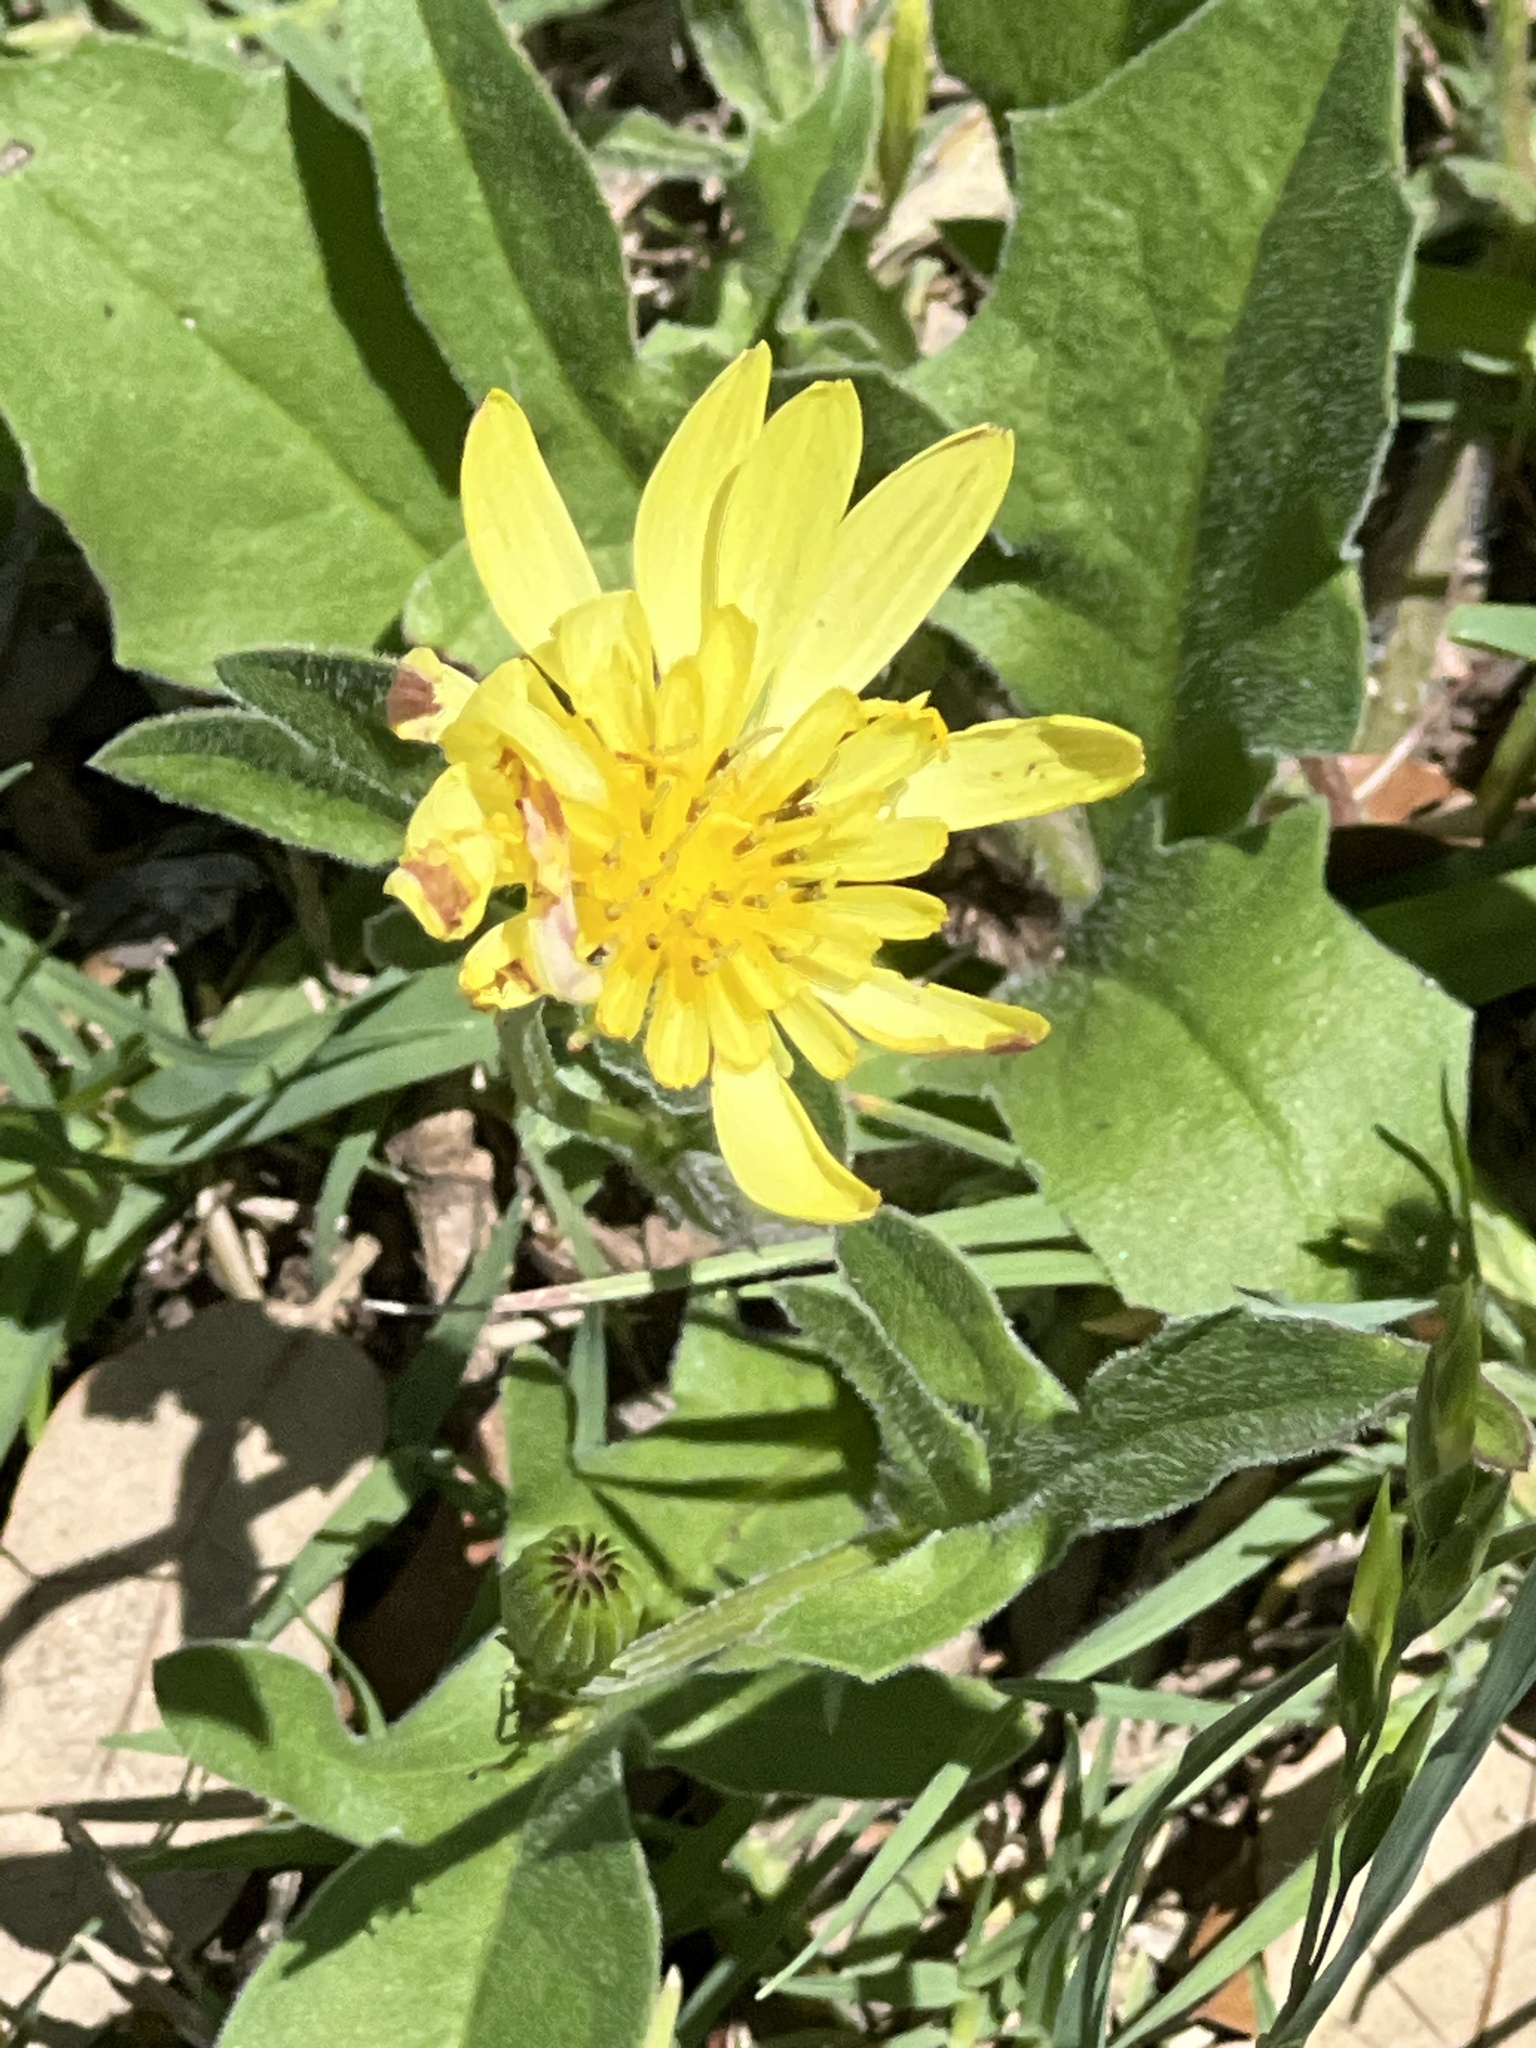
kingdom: Plantae
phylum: Tracheophyta
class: Magnoliopsida
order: Asterales
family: Asteraceae
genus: Pyrrhopappus
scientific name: Pyrrhopappus pauciflorus
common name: Texas false dandelion
